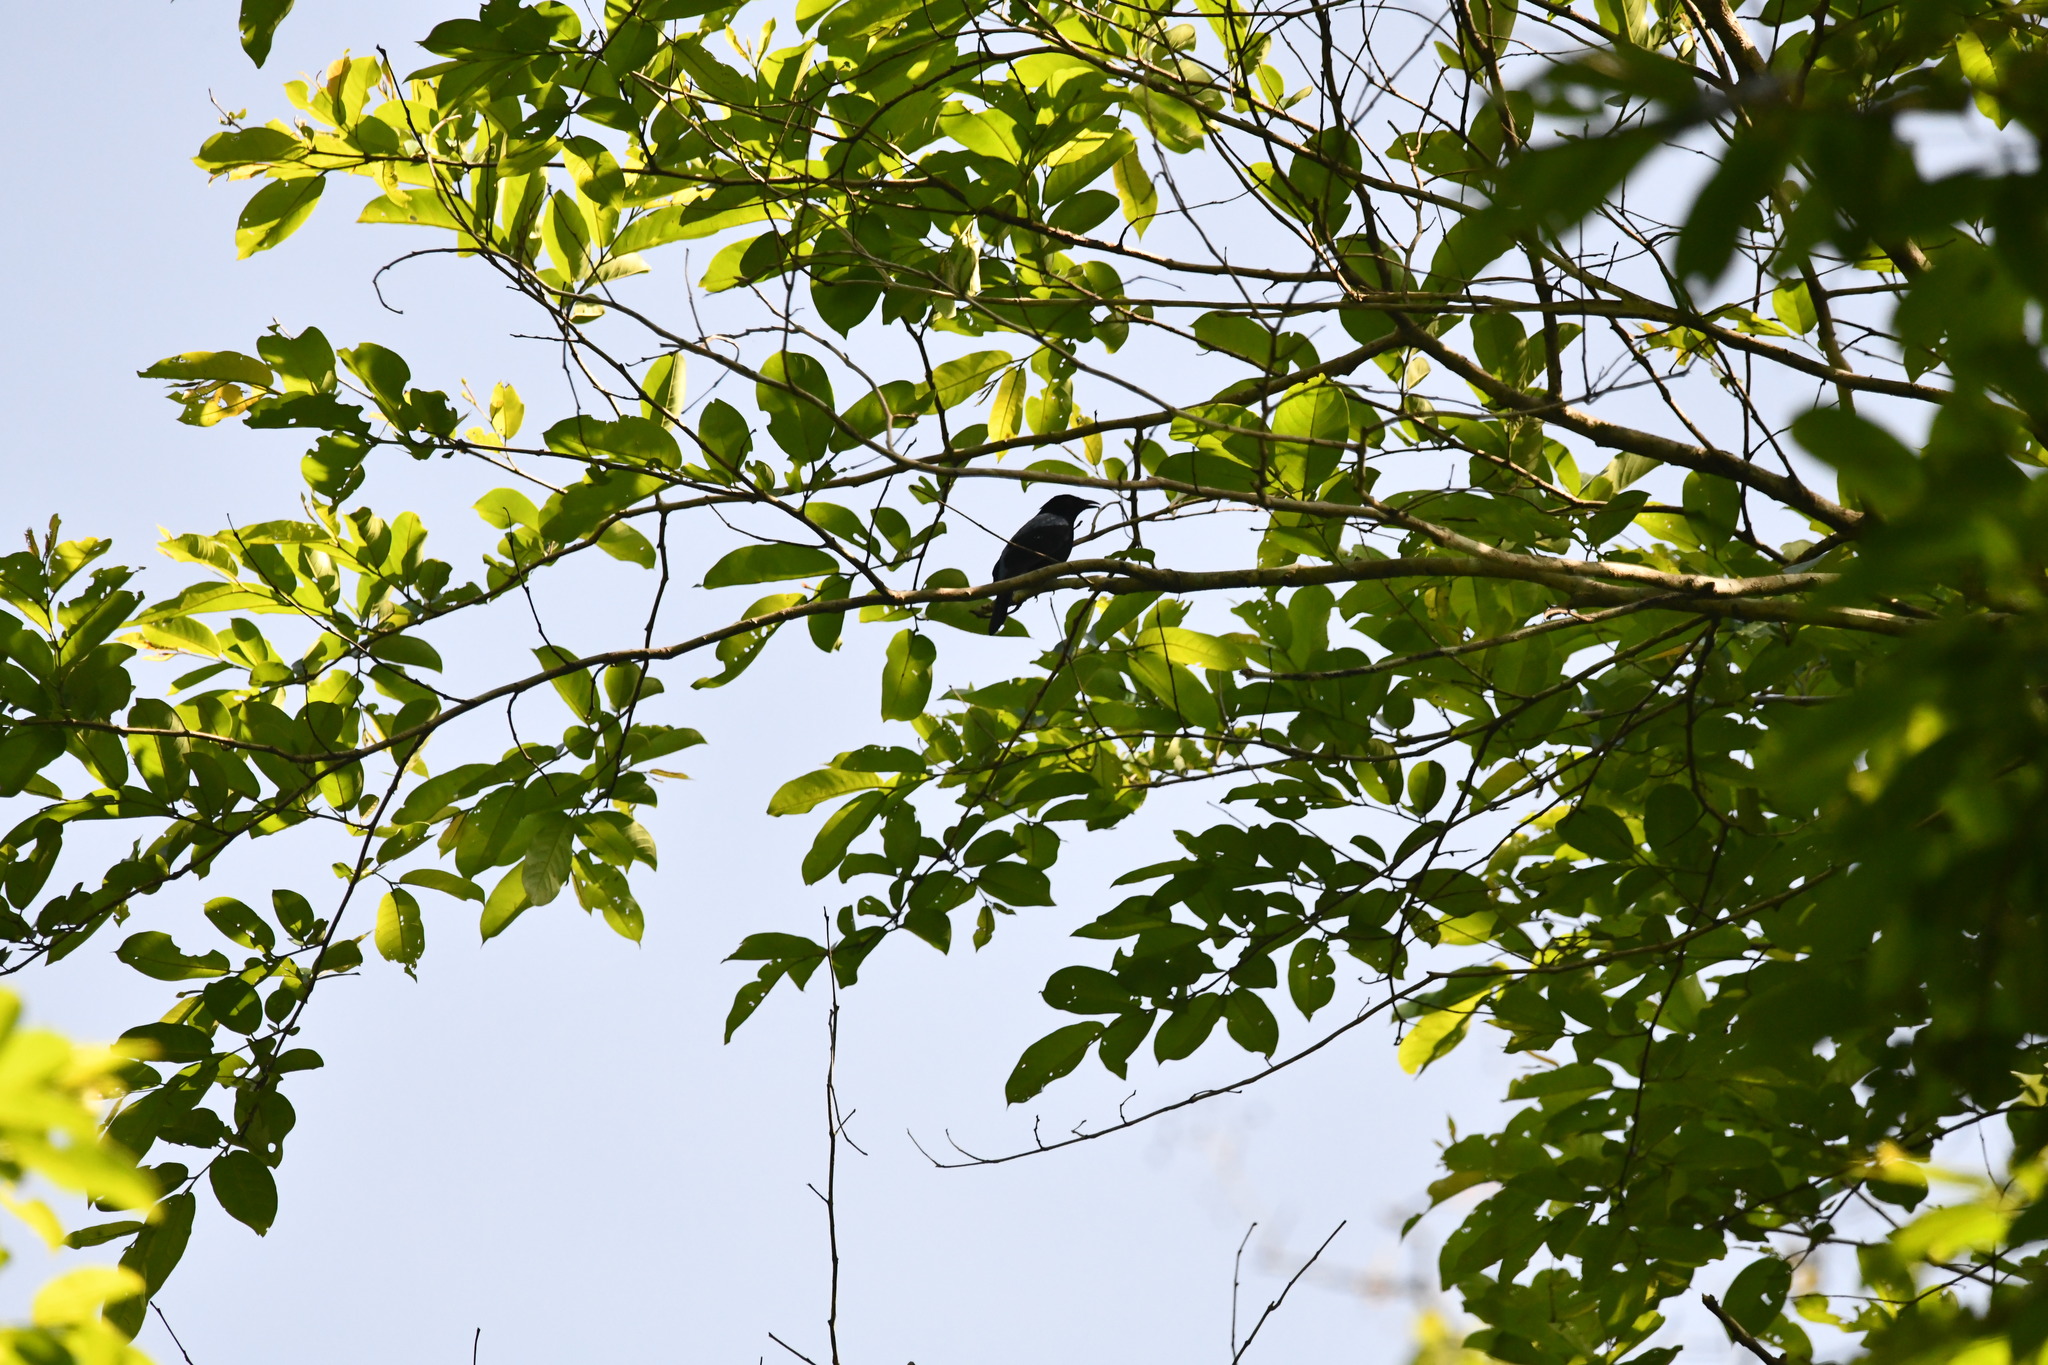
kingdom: Animalia
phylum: Chordata
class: Aves
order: Passeriformes
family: Irenidae
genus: Irena
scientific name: Irena puella
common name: Asian fairy-bluebird
